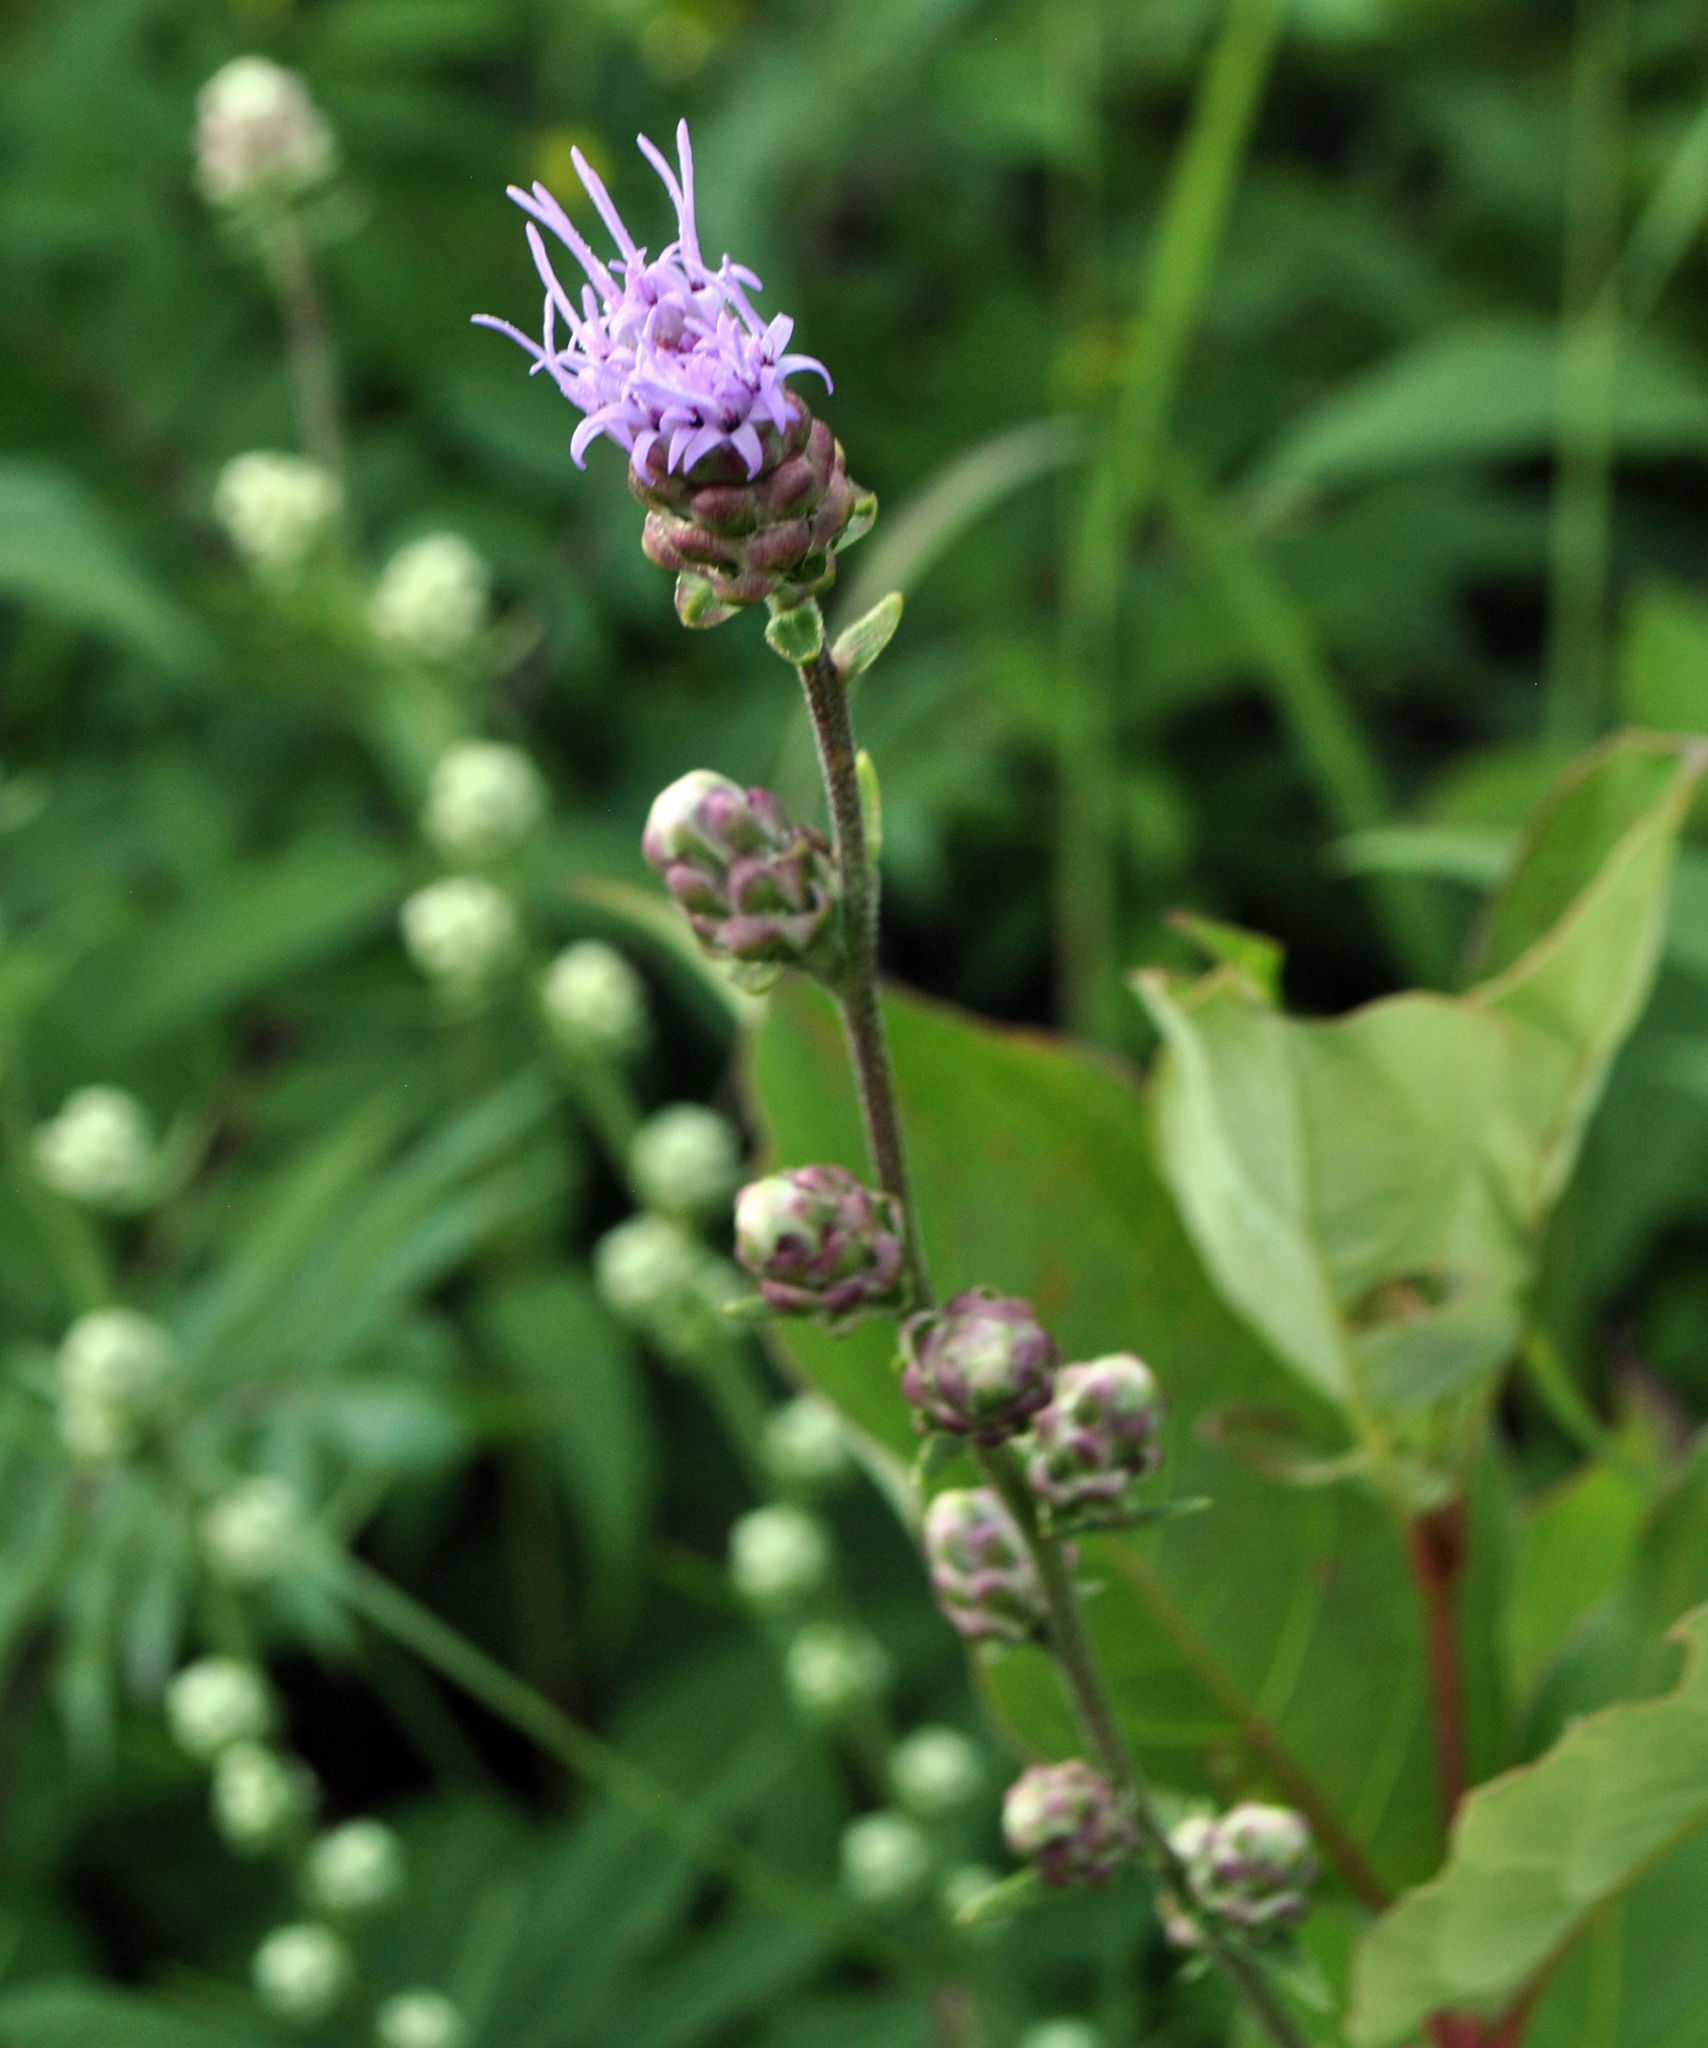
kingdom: Plantae
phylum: Tracheophyta
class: Magnoliopsida
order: Asterales
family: Asteraceae
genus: Liatris
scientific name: Liatris aspera
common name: Lacerate blazing-star
